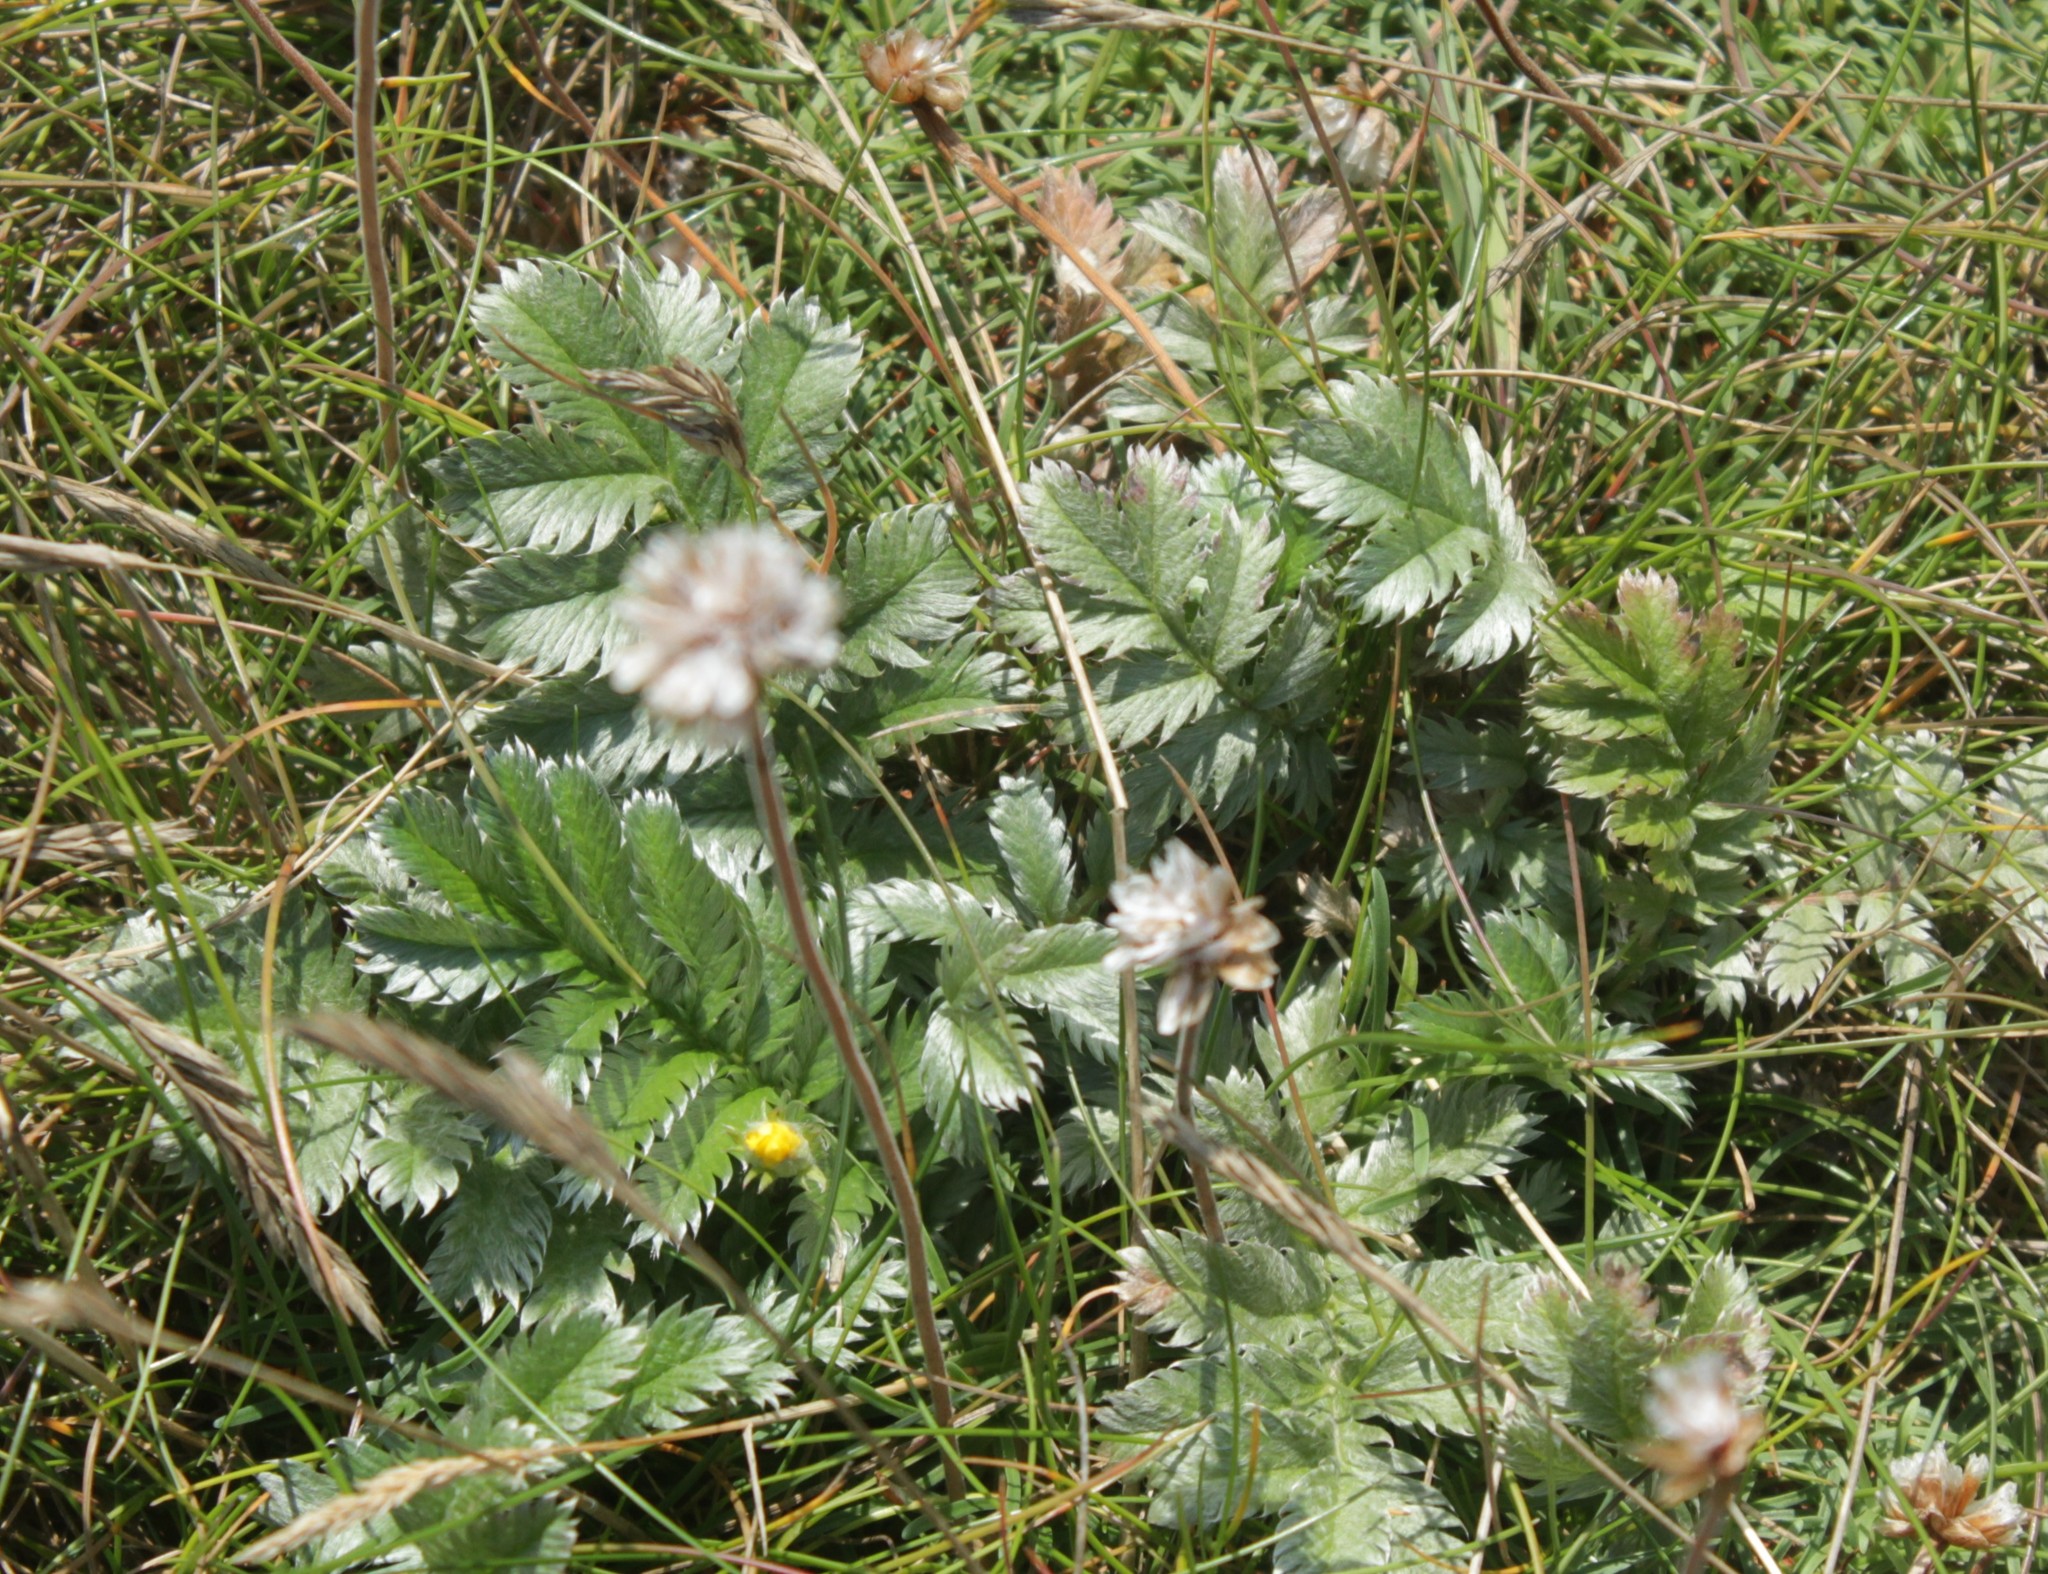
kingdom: Plantae
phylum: Tracheophyta
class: Magnoliopsida
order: Rosales
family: Rosaceae
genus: Argentina
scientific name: Argentina anserina
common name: Common silverweed
